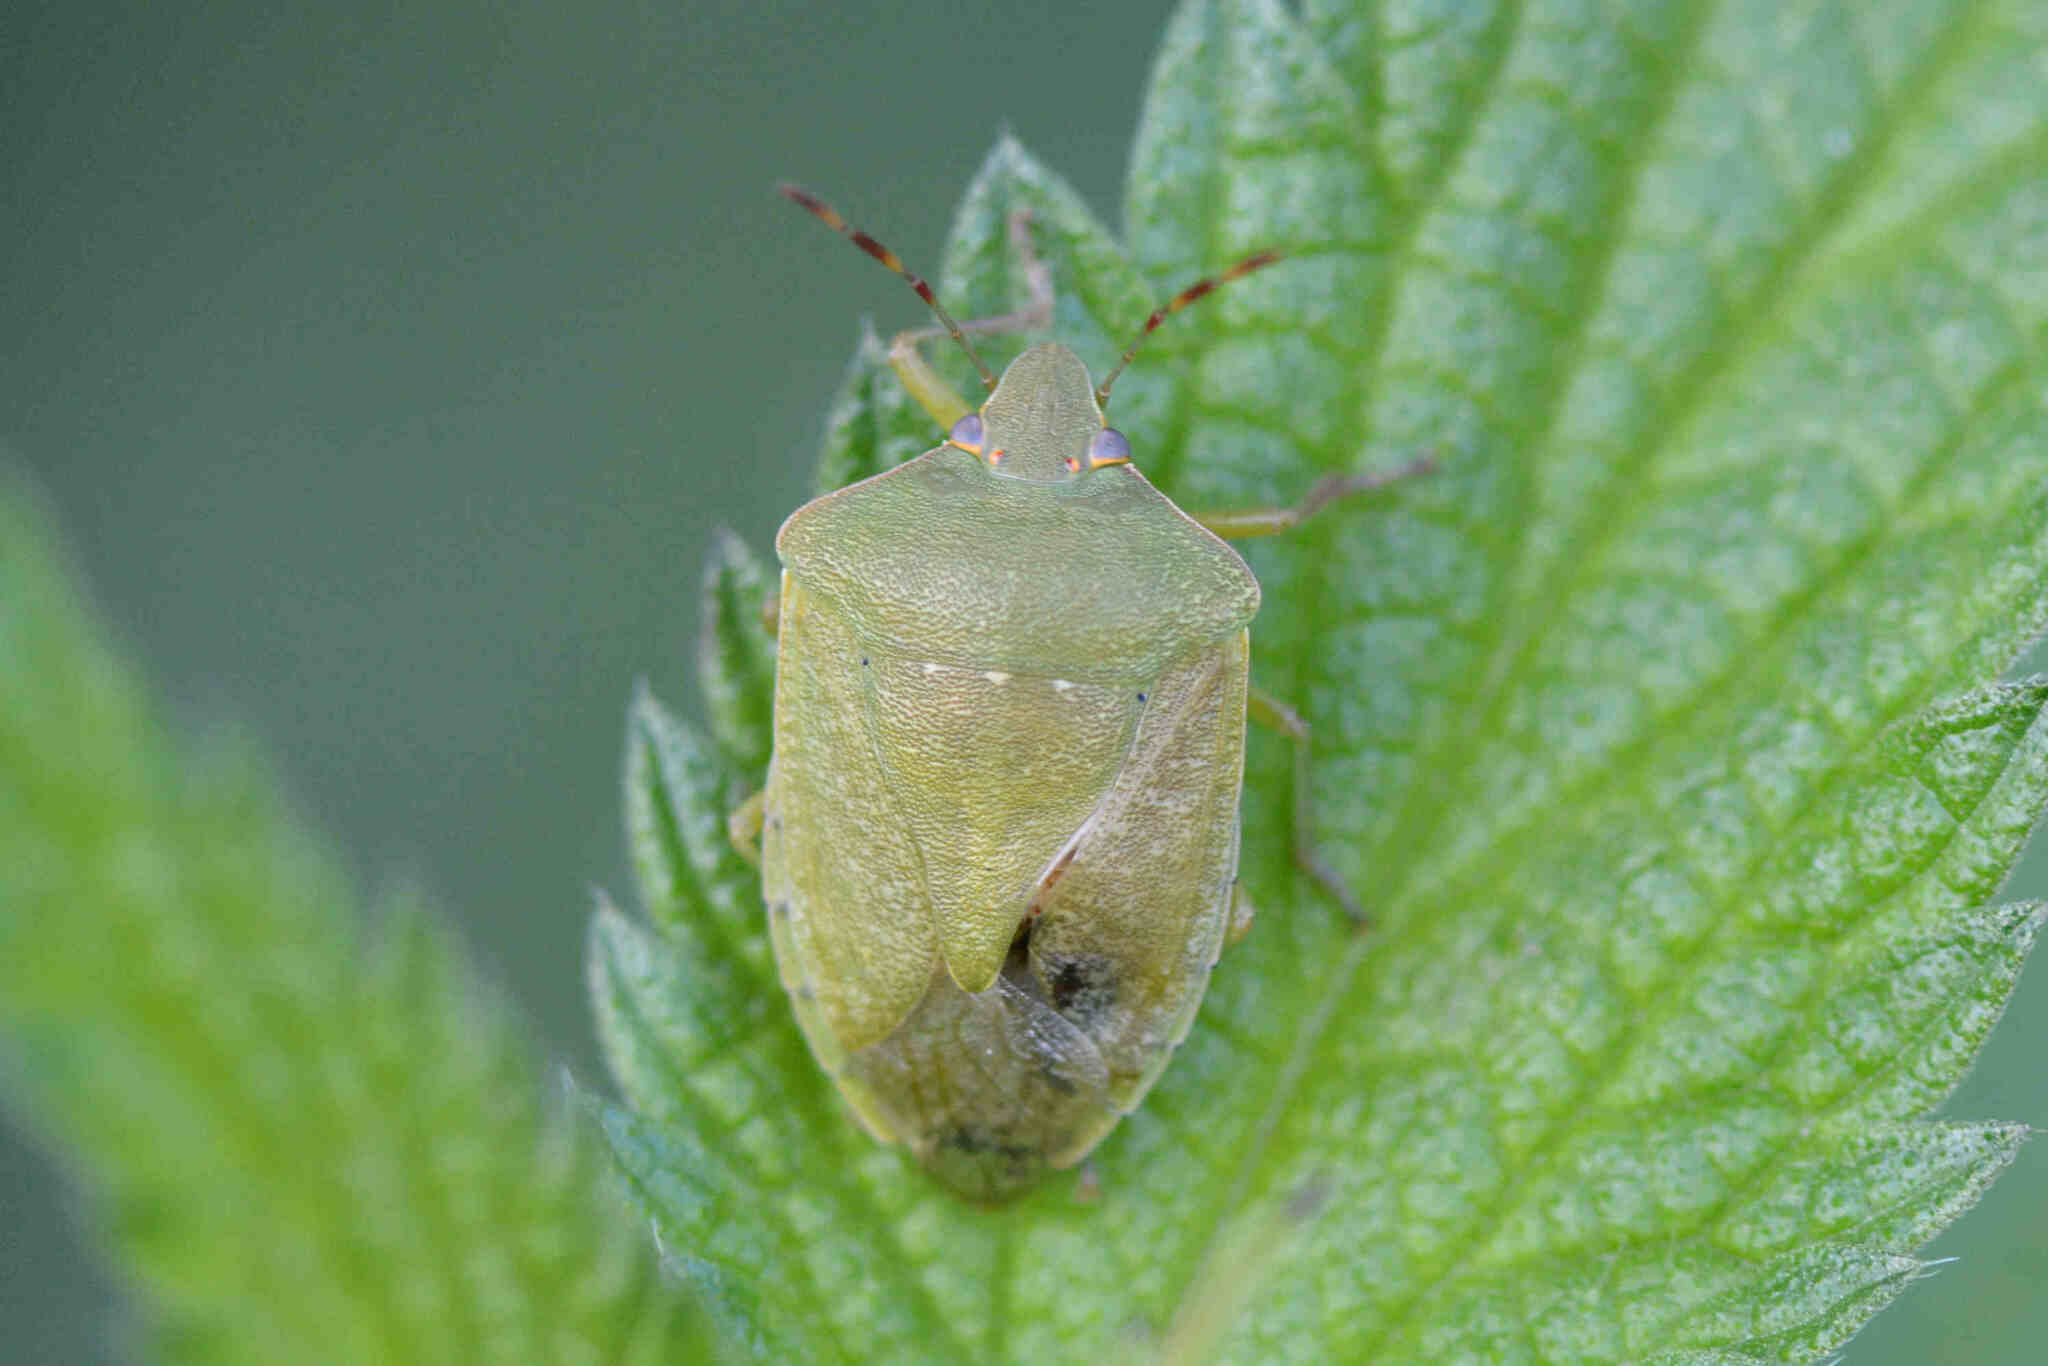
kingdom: Animalia
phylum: Arthropoda
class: Insecta
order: Hemiptera
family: Pentatomidae
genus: Nezara
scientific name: Nezara viridula
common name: Southern green stink bug
